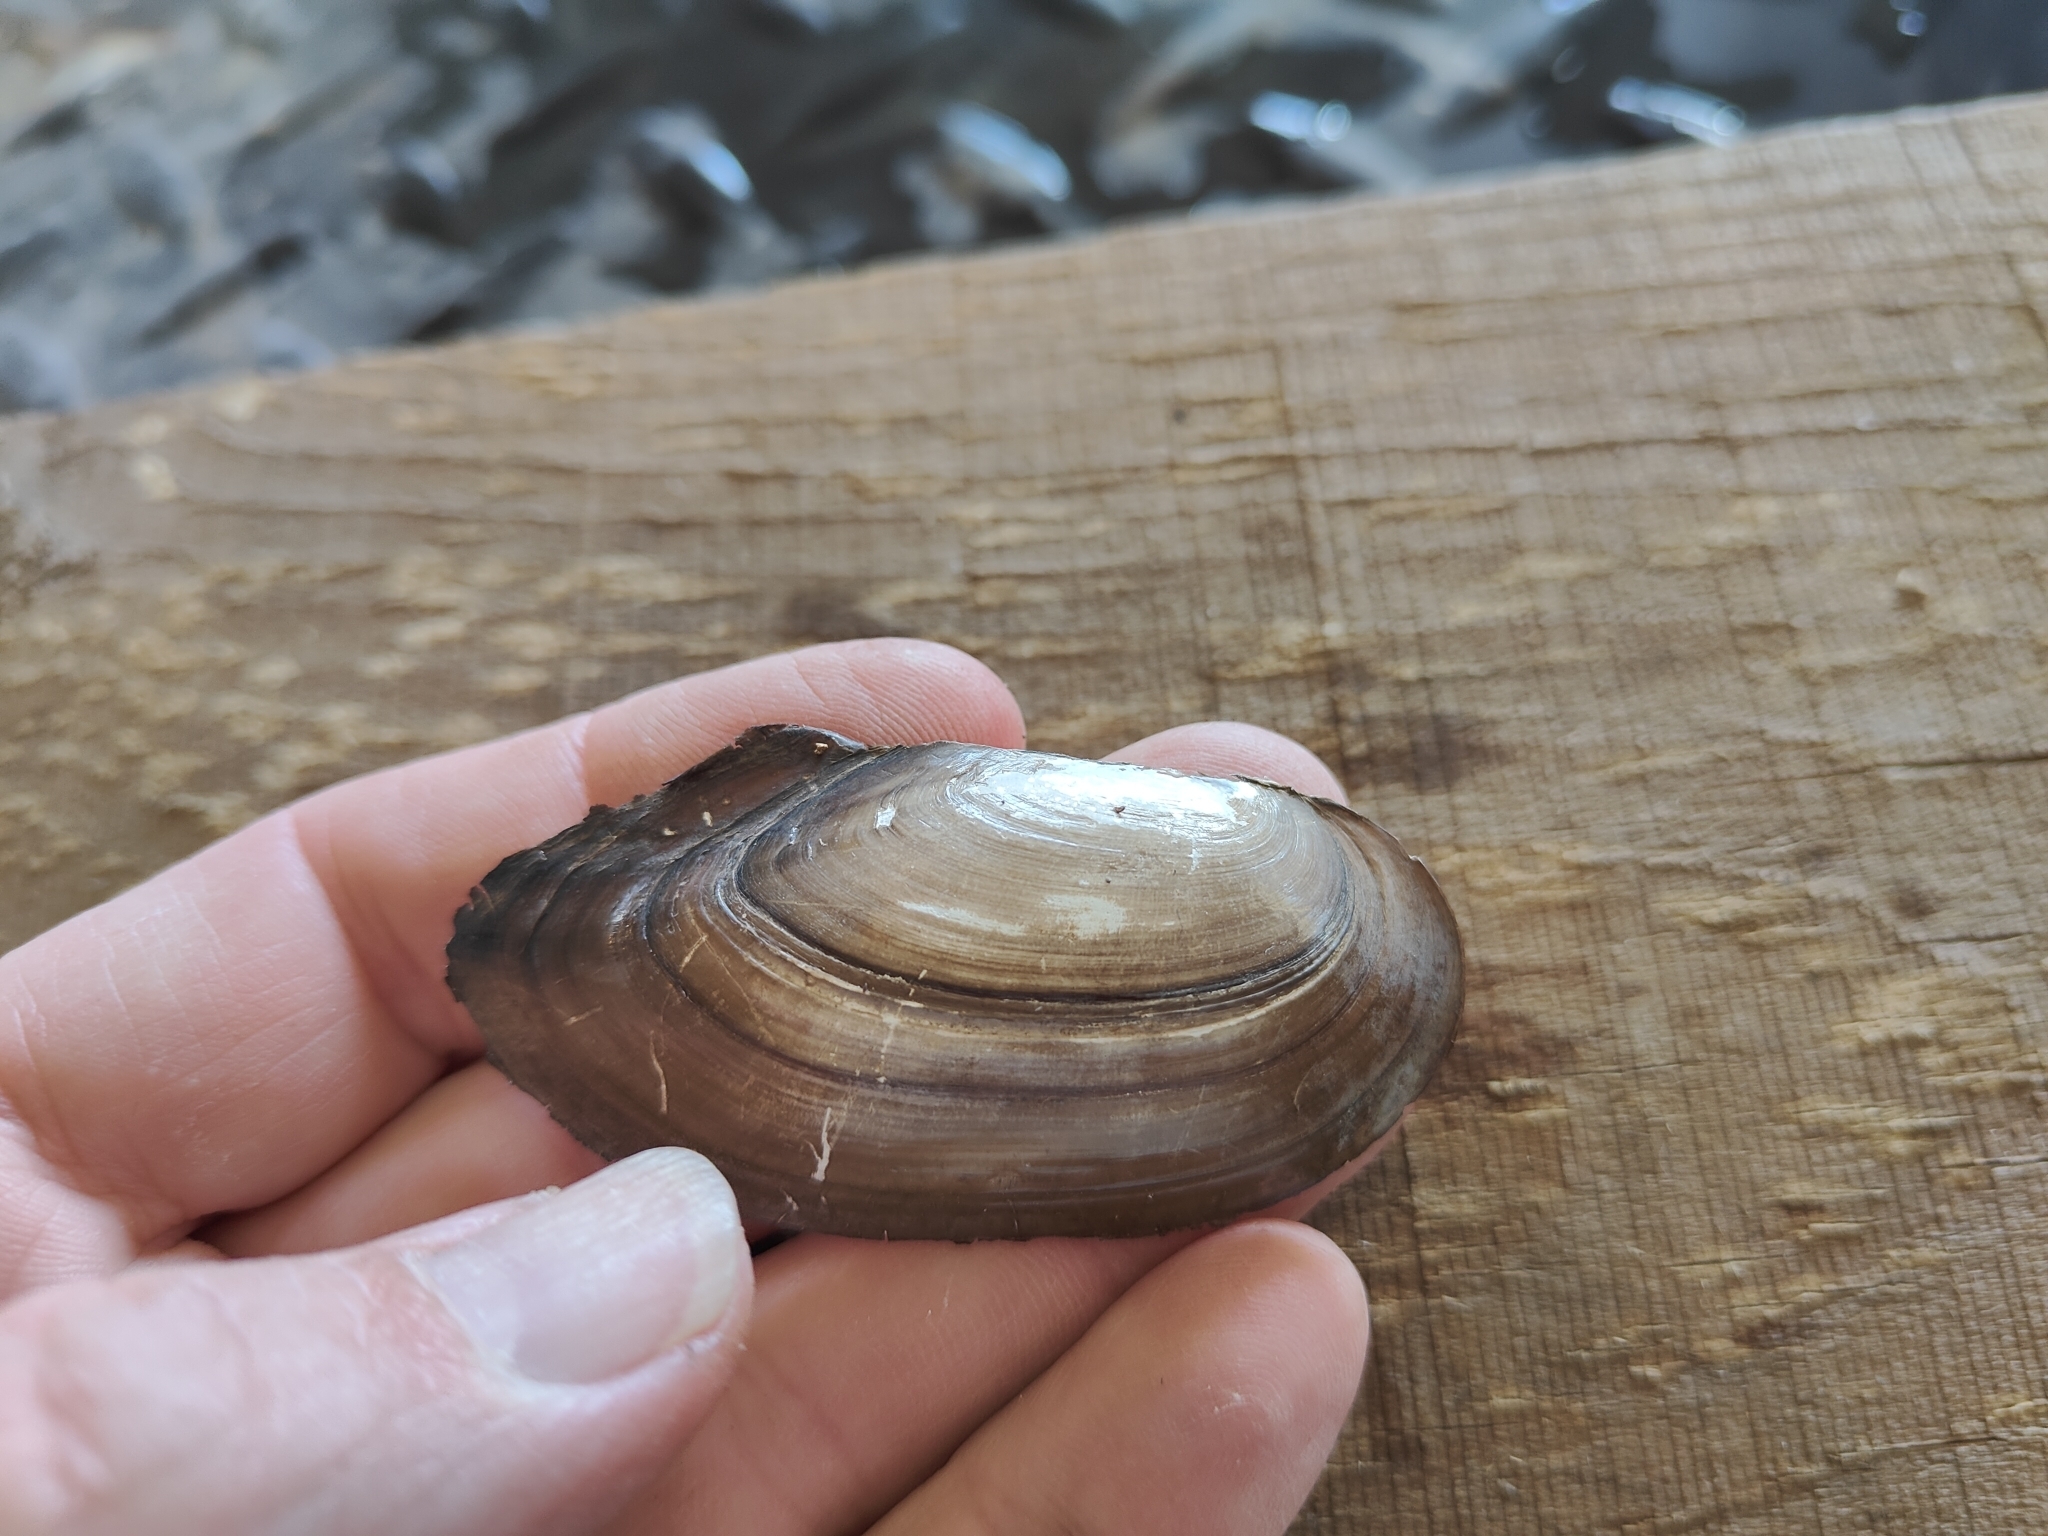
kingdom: Animalia
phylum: Mollusca
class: Bivalvia
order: Unionida
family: Unionidae
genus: Utterbackia
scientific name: Utterbackia imbecillis
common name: Paper pondshell
